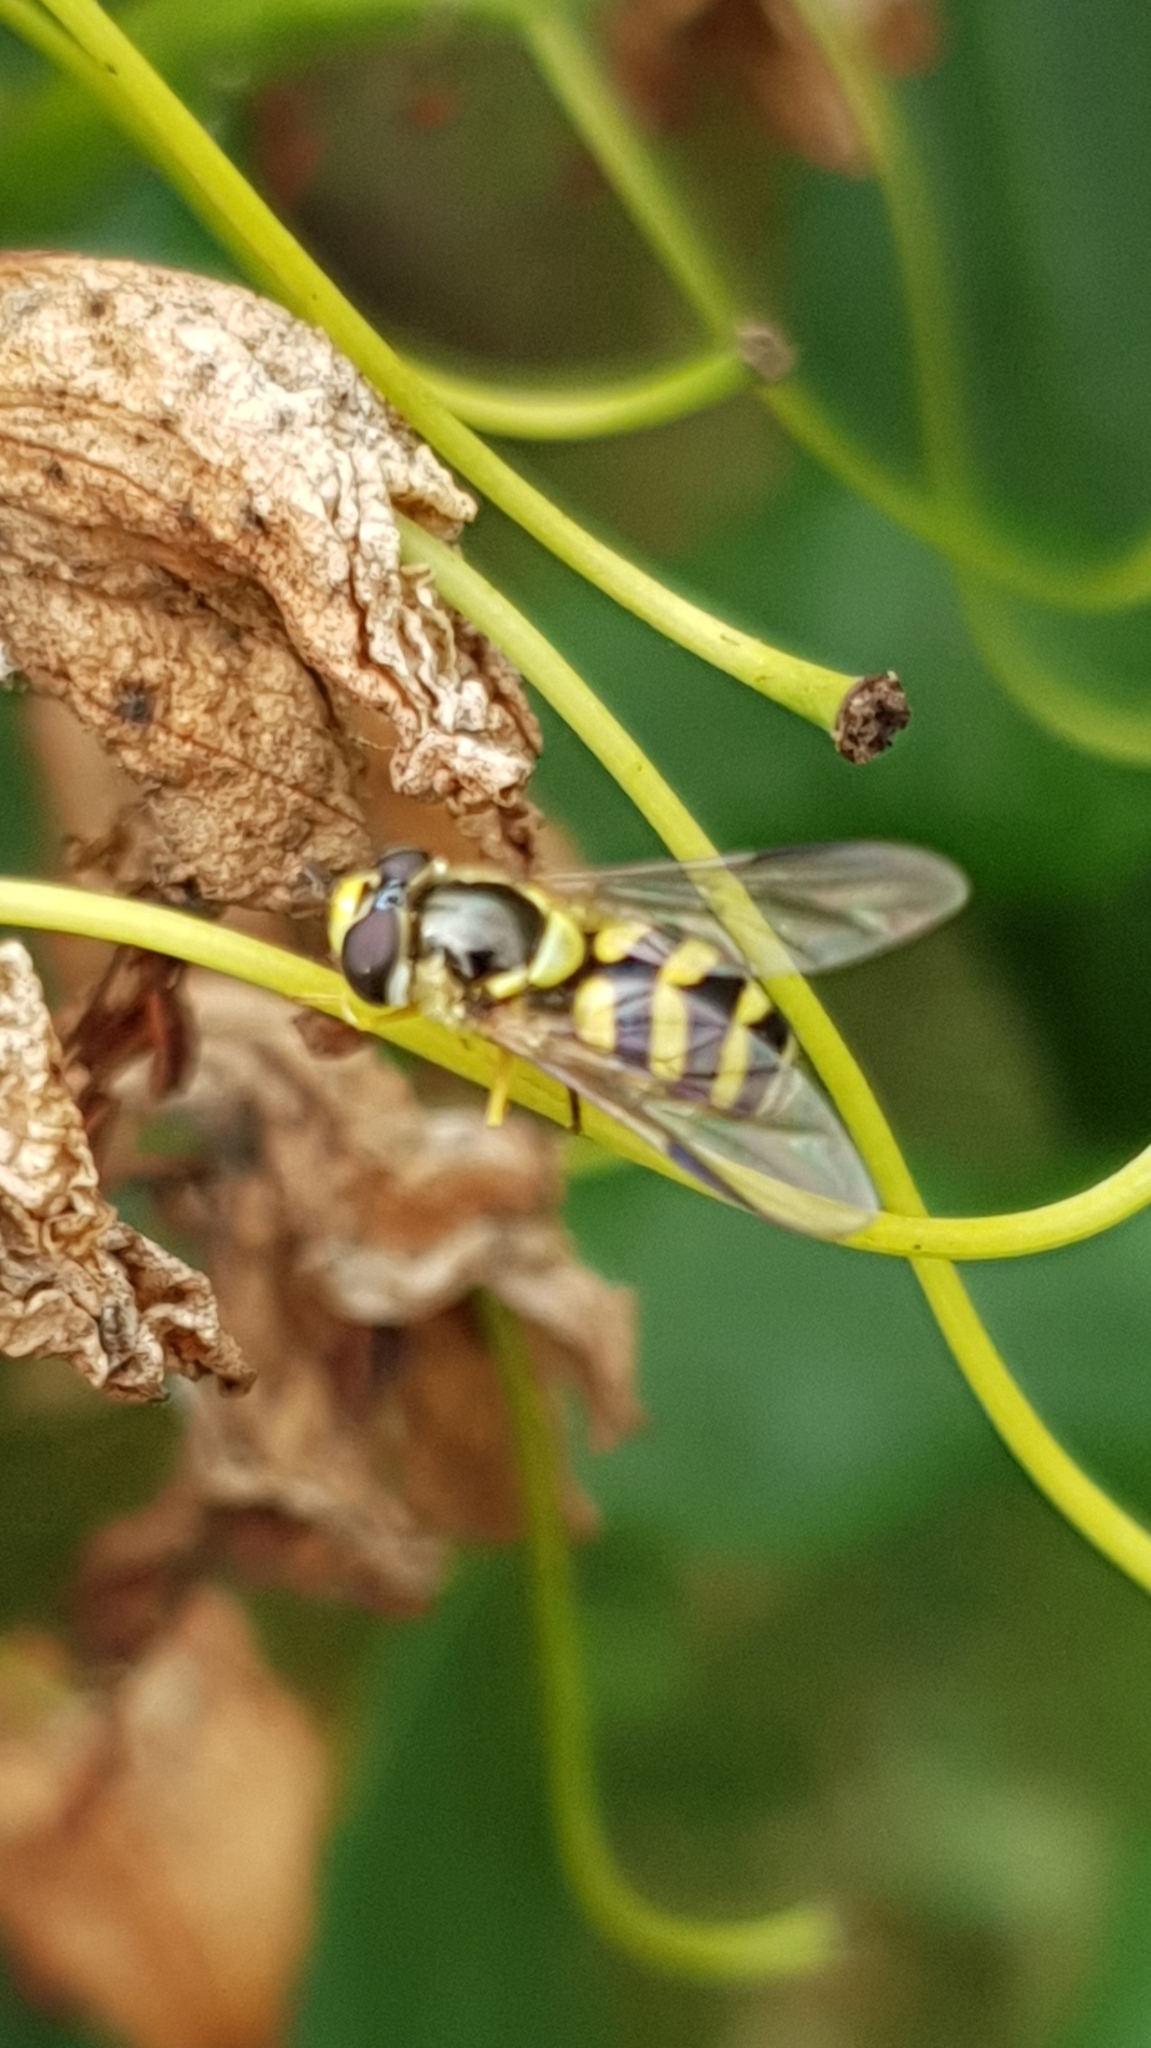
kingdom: Animalia
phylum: Arthropoda
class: Insecta
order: Diptera
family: Syrphidae
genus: Dasysyrphus
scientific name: Dasysyrphus albostriatus
